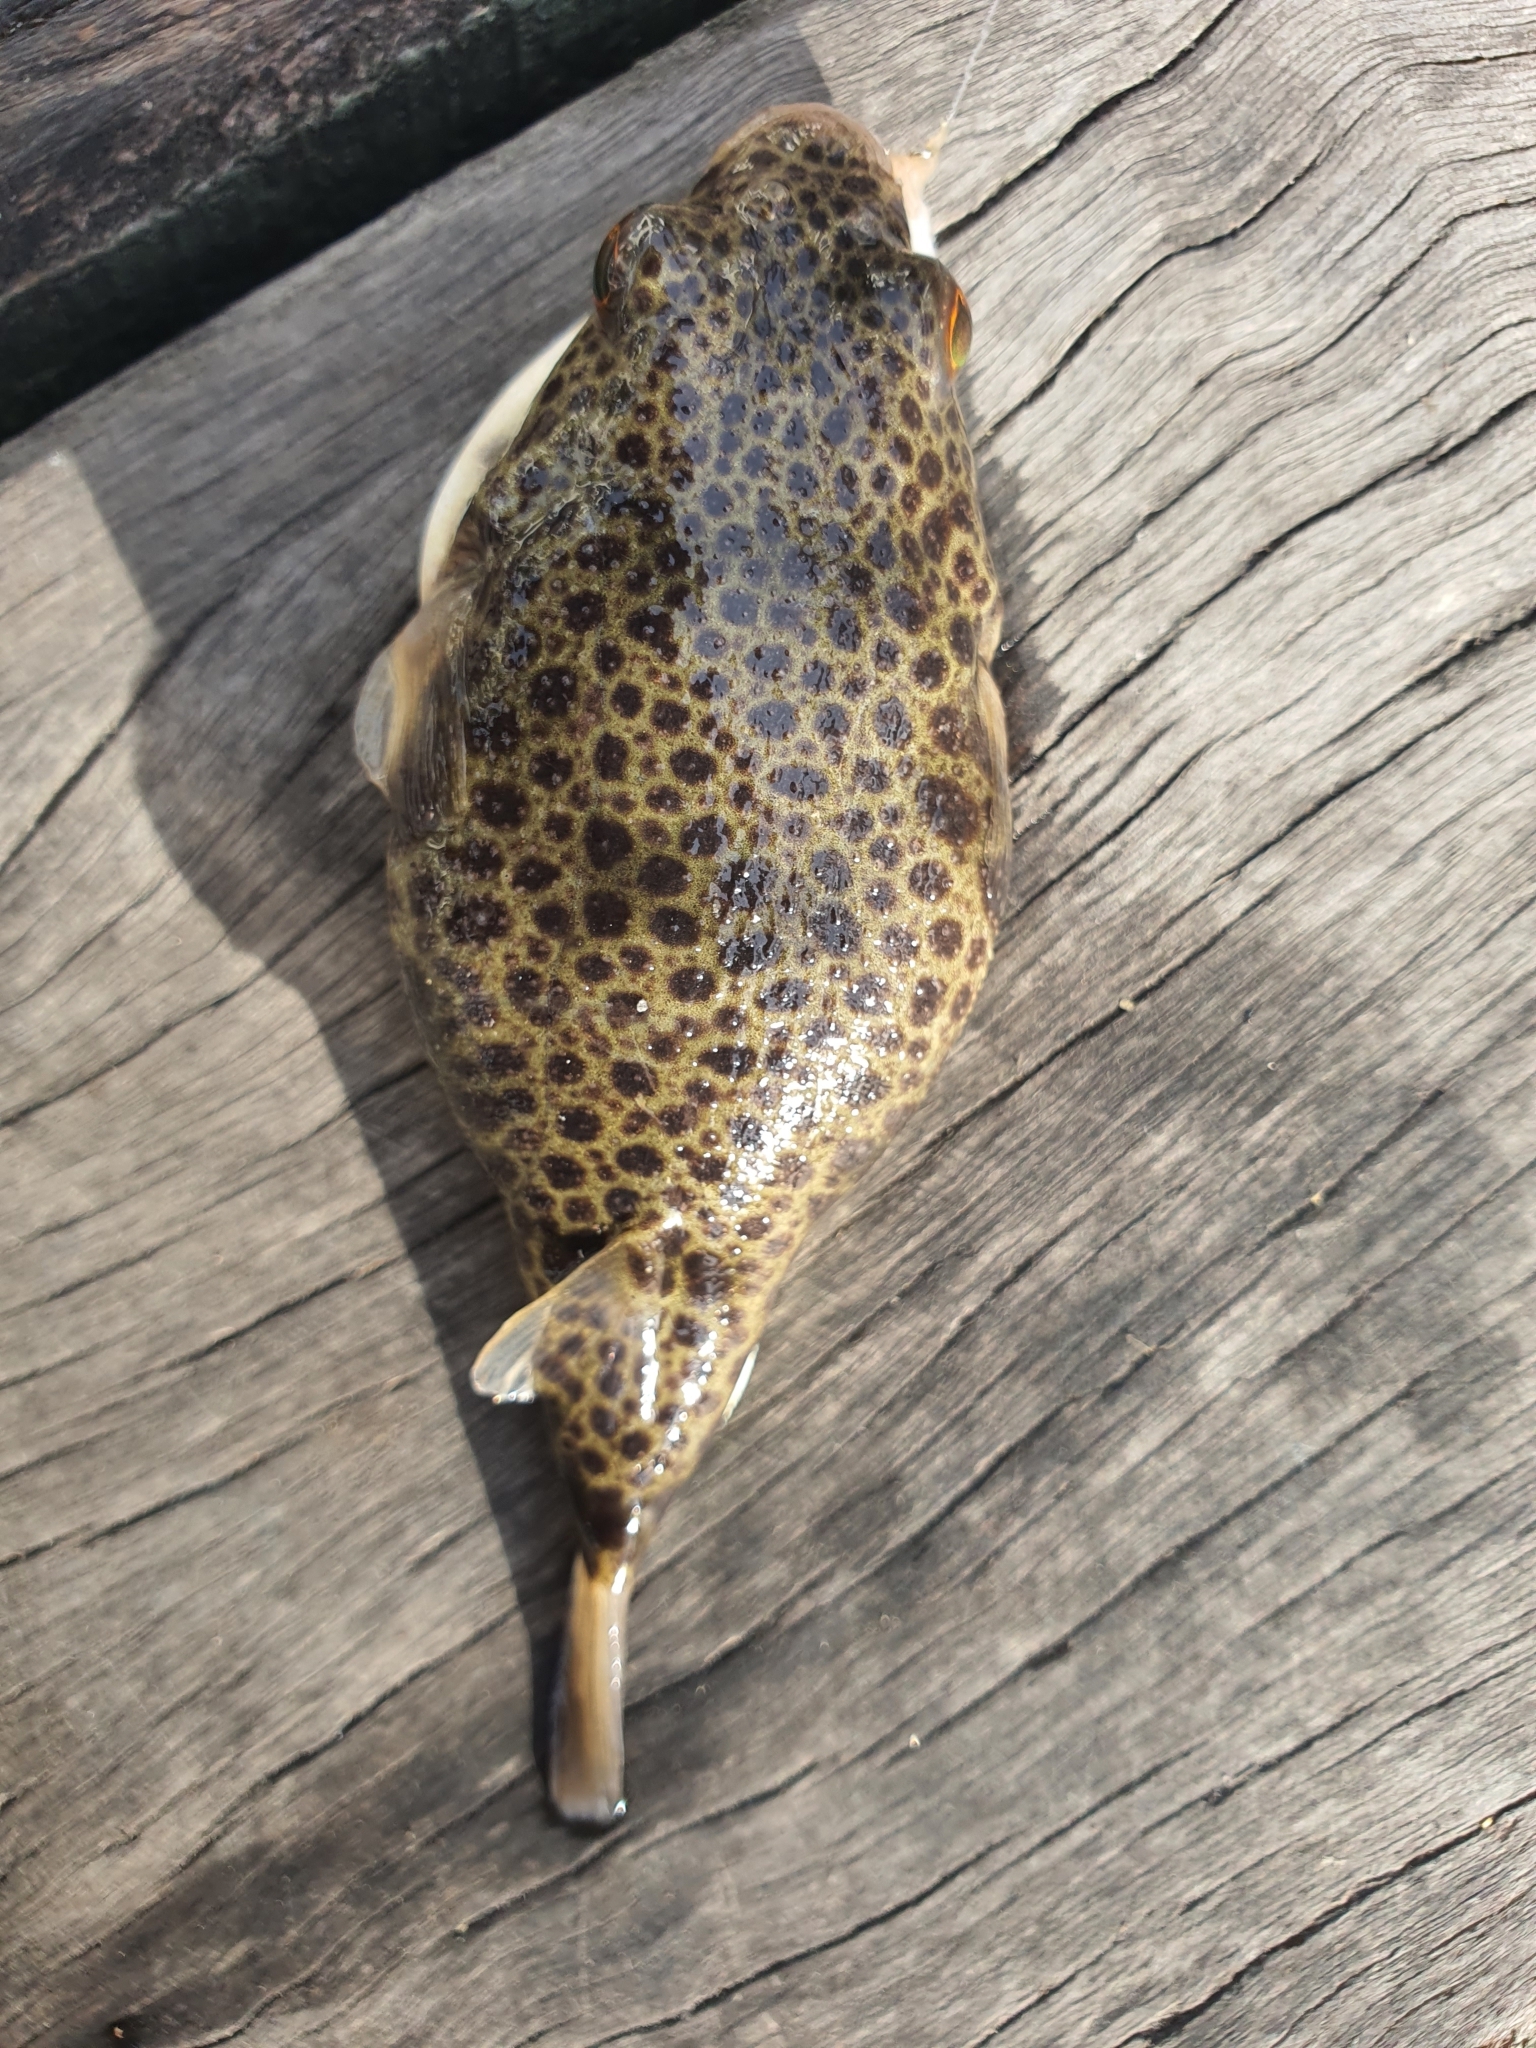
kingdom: Animalia
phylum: Chordata
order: Tetraodontiformes
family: Tetraodontidae
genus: Tetractenos
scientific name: Tetractenos hamiltoni
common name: Common toadfish
